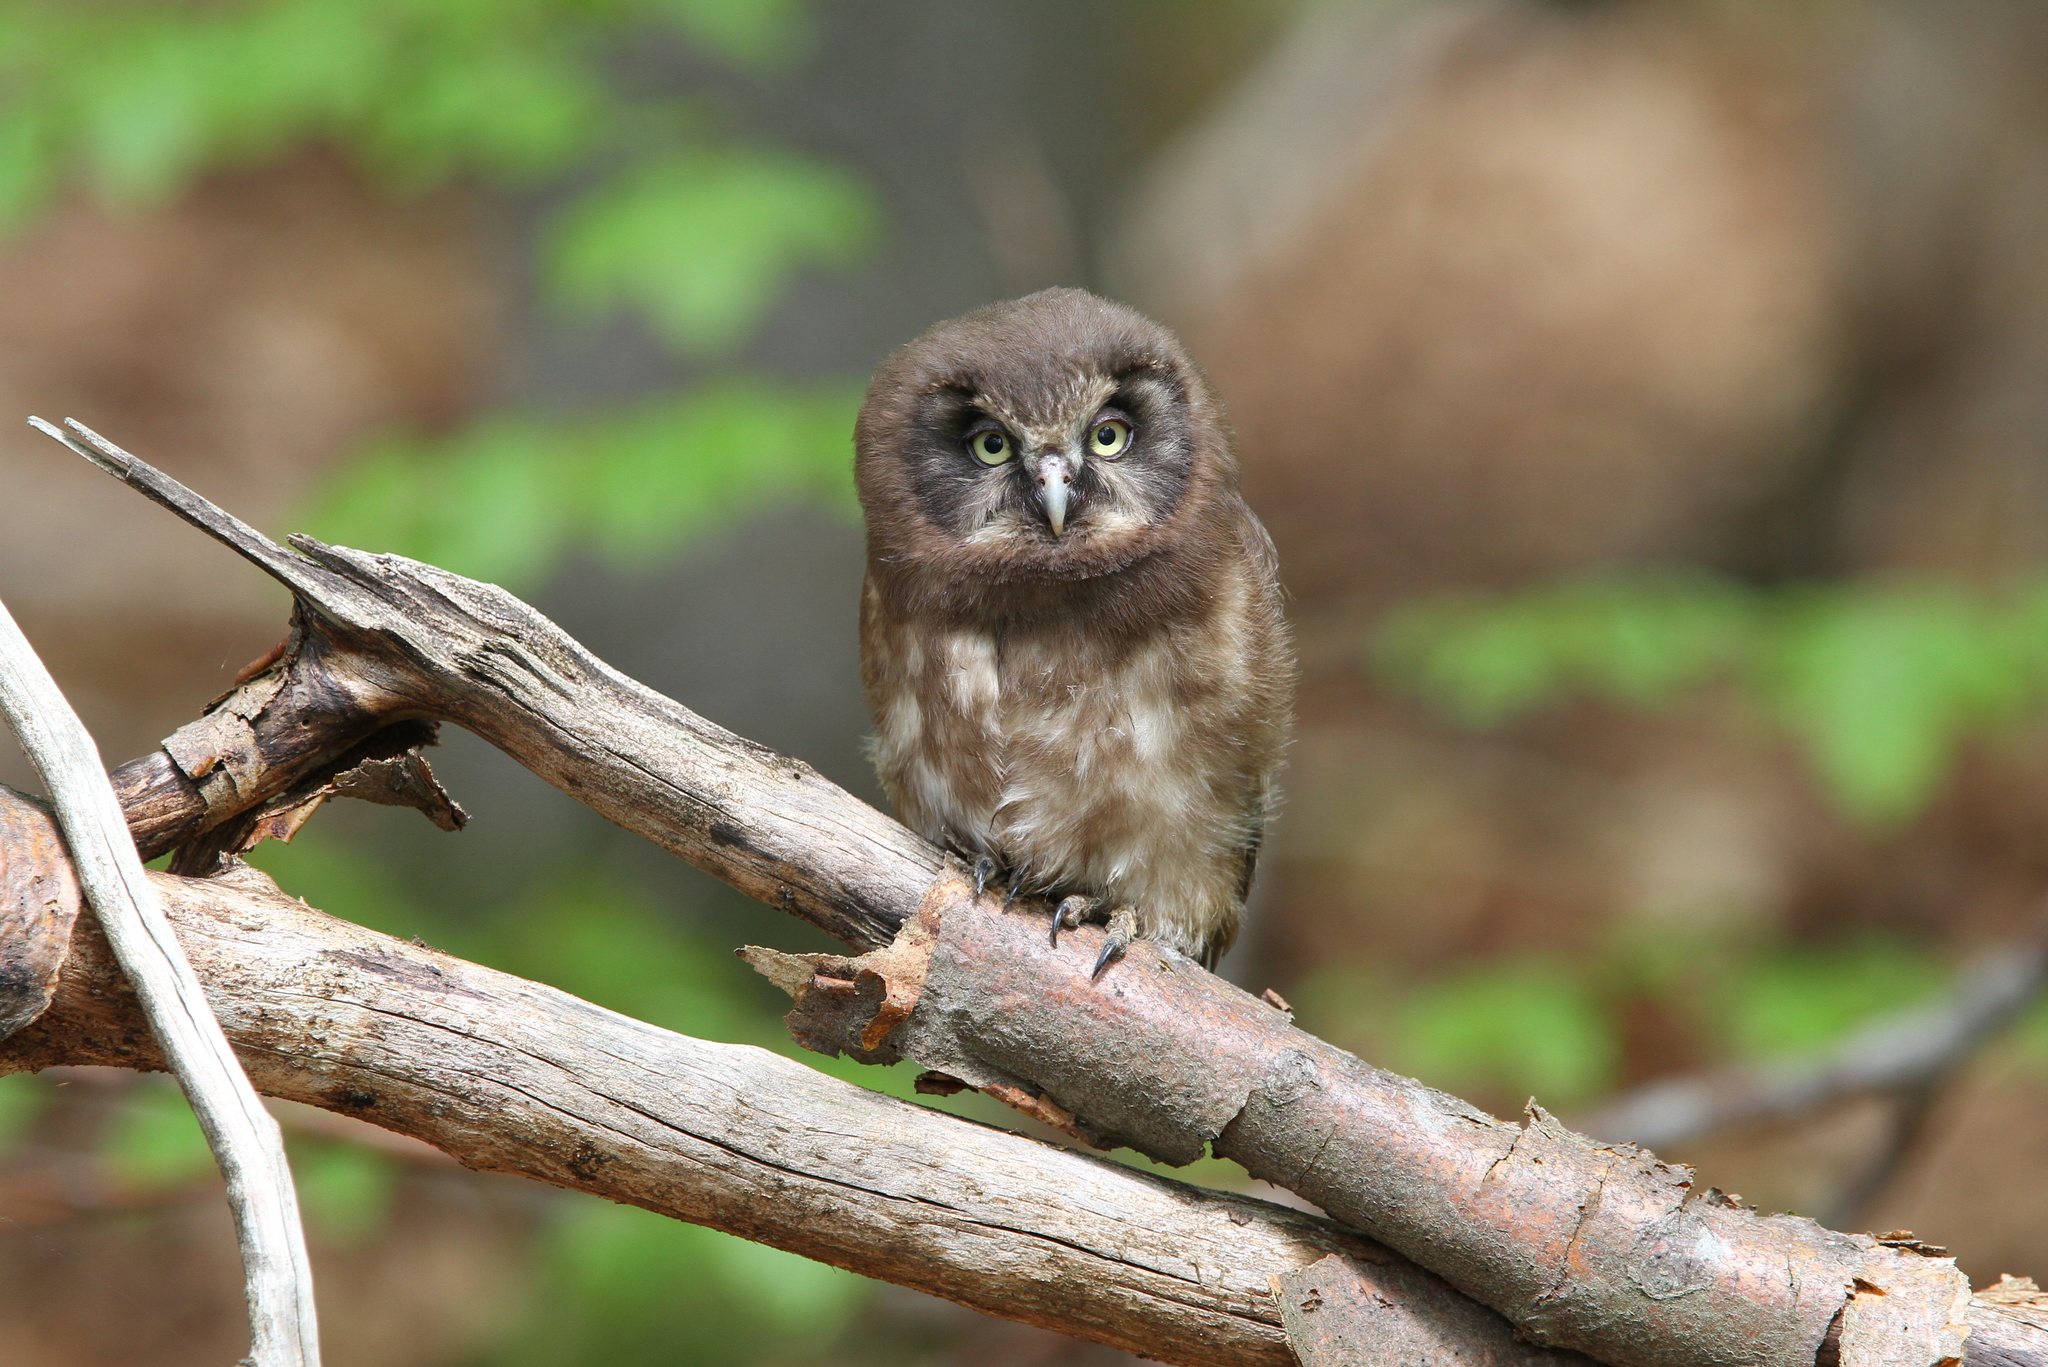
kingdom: Animalia
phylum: Chordata
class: Aves
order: Strigiformes
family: Strigidae
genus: Aegolius
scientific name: Aegolius funereus
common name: Boreal owl
